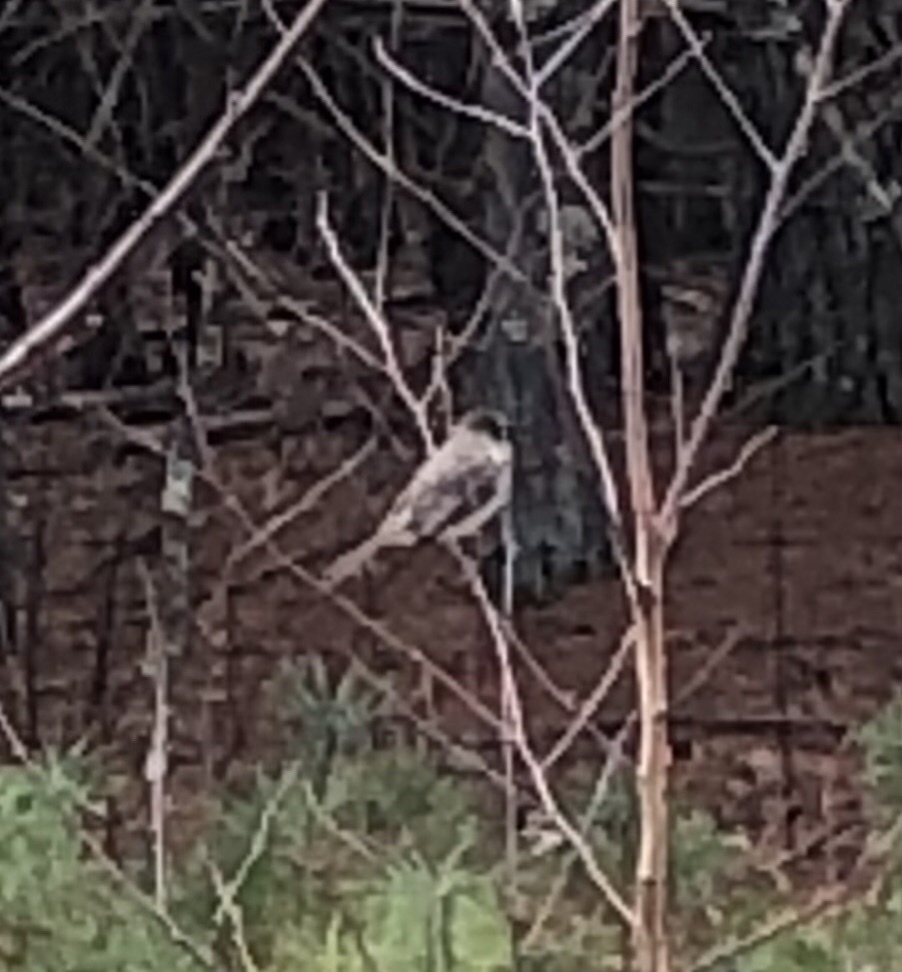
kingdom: Animalia
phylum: Chordata
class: Aves
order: Passeriformes
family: Tyrannidae
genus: Sayornis
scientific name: Sayornis phoebe
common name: Eastern phoebe
